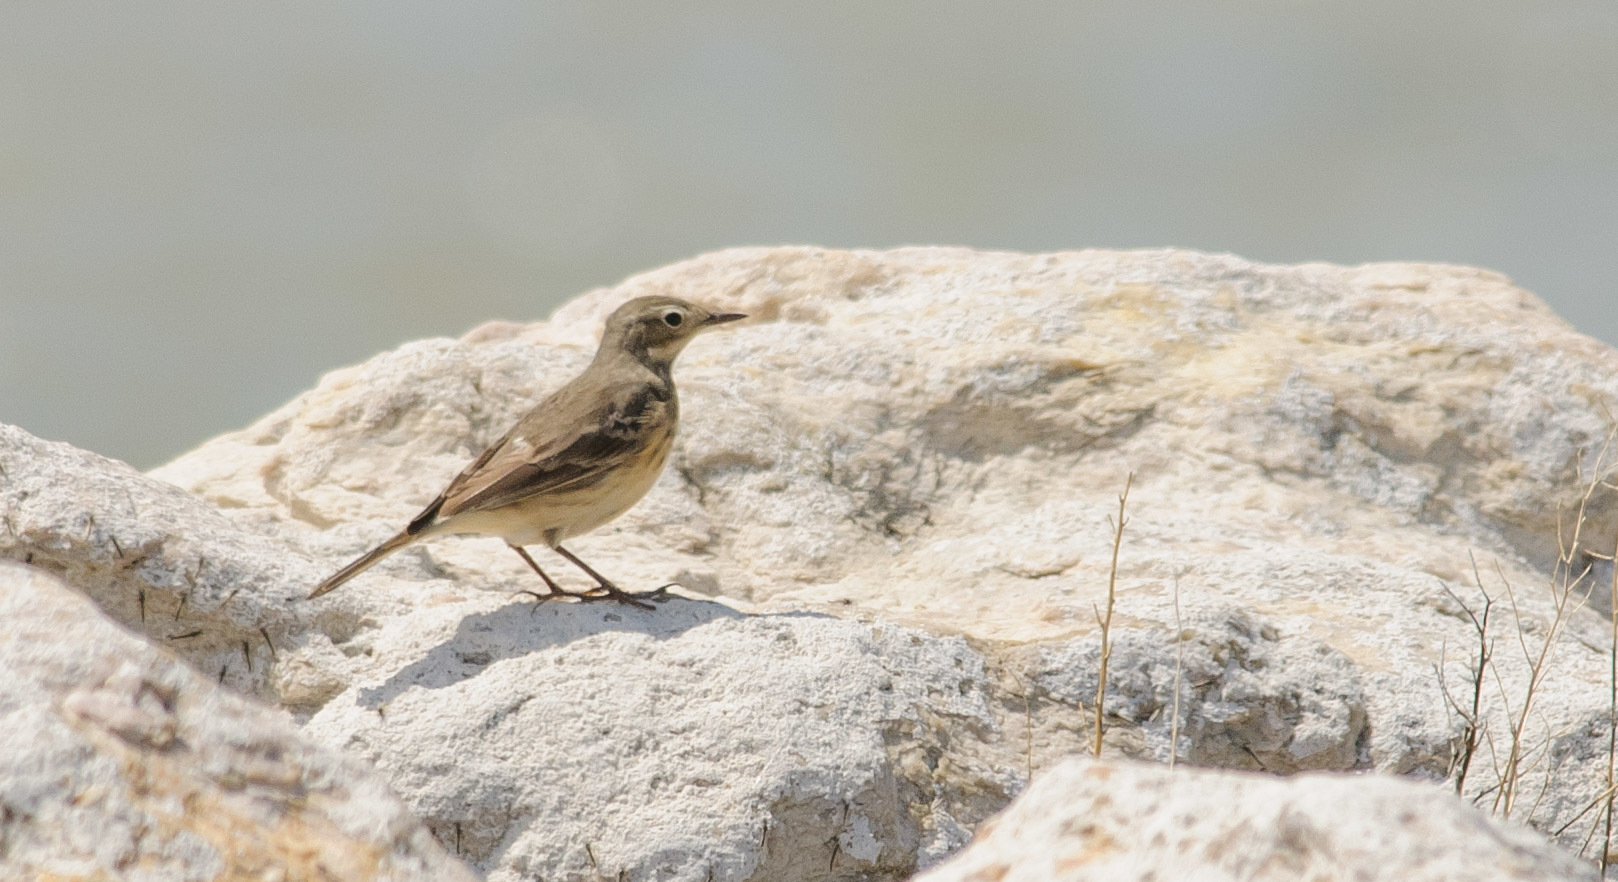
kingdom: Animalia
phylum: Chordata
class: Aves
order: Passeriformes
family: Motacillidae
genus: Anthus
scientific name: Anthus rubescens
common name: Buff-bellied pipit
